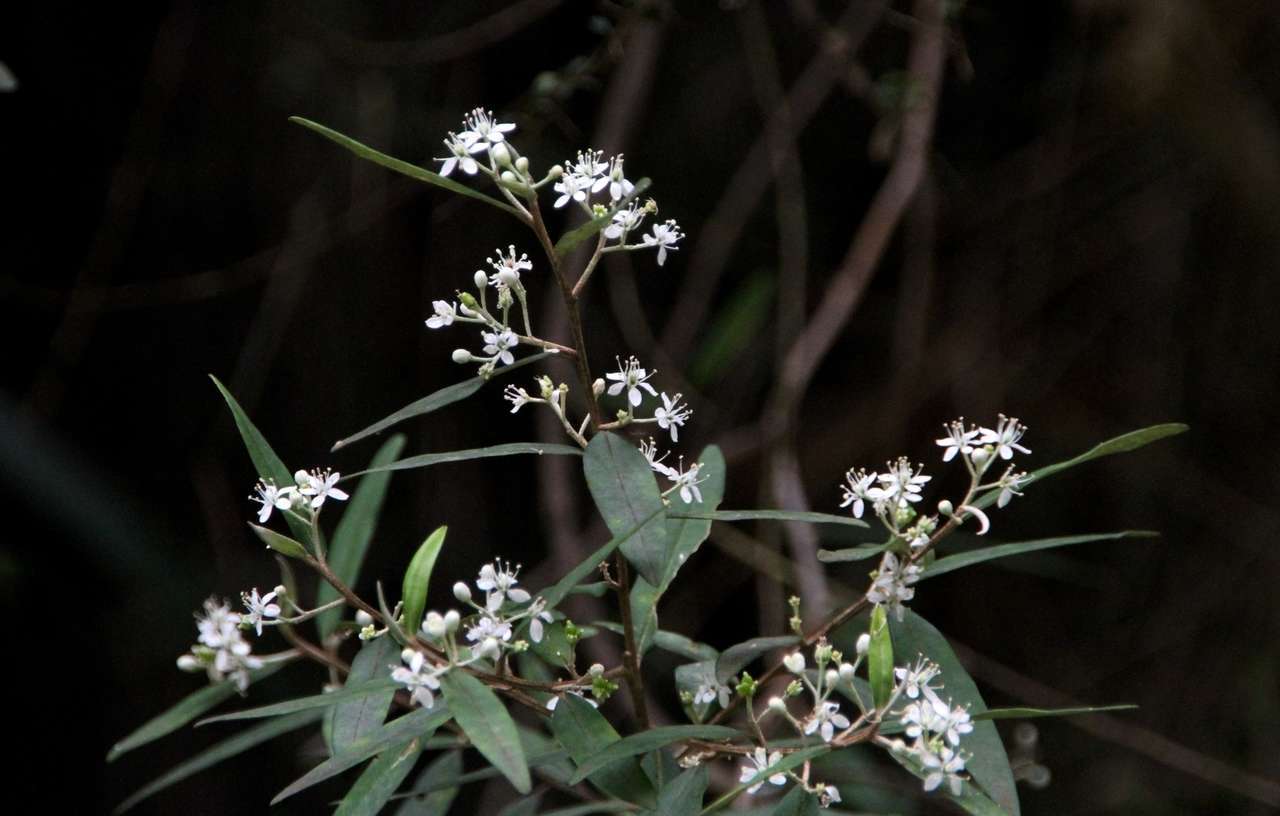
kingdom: Plantae
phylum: Tracheophyta
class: Magnoliopsida
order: Sapindales
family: Rutaceae
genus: Nematolepis
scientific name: Nematolepis squamea
